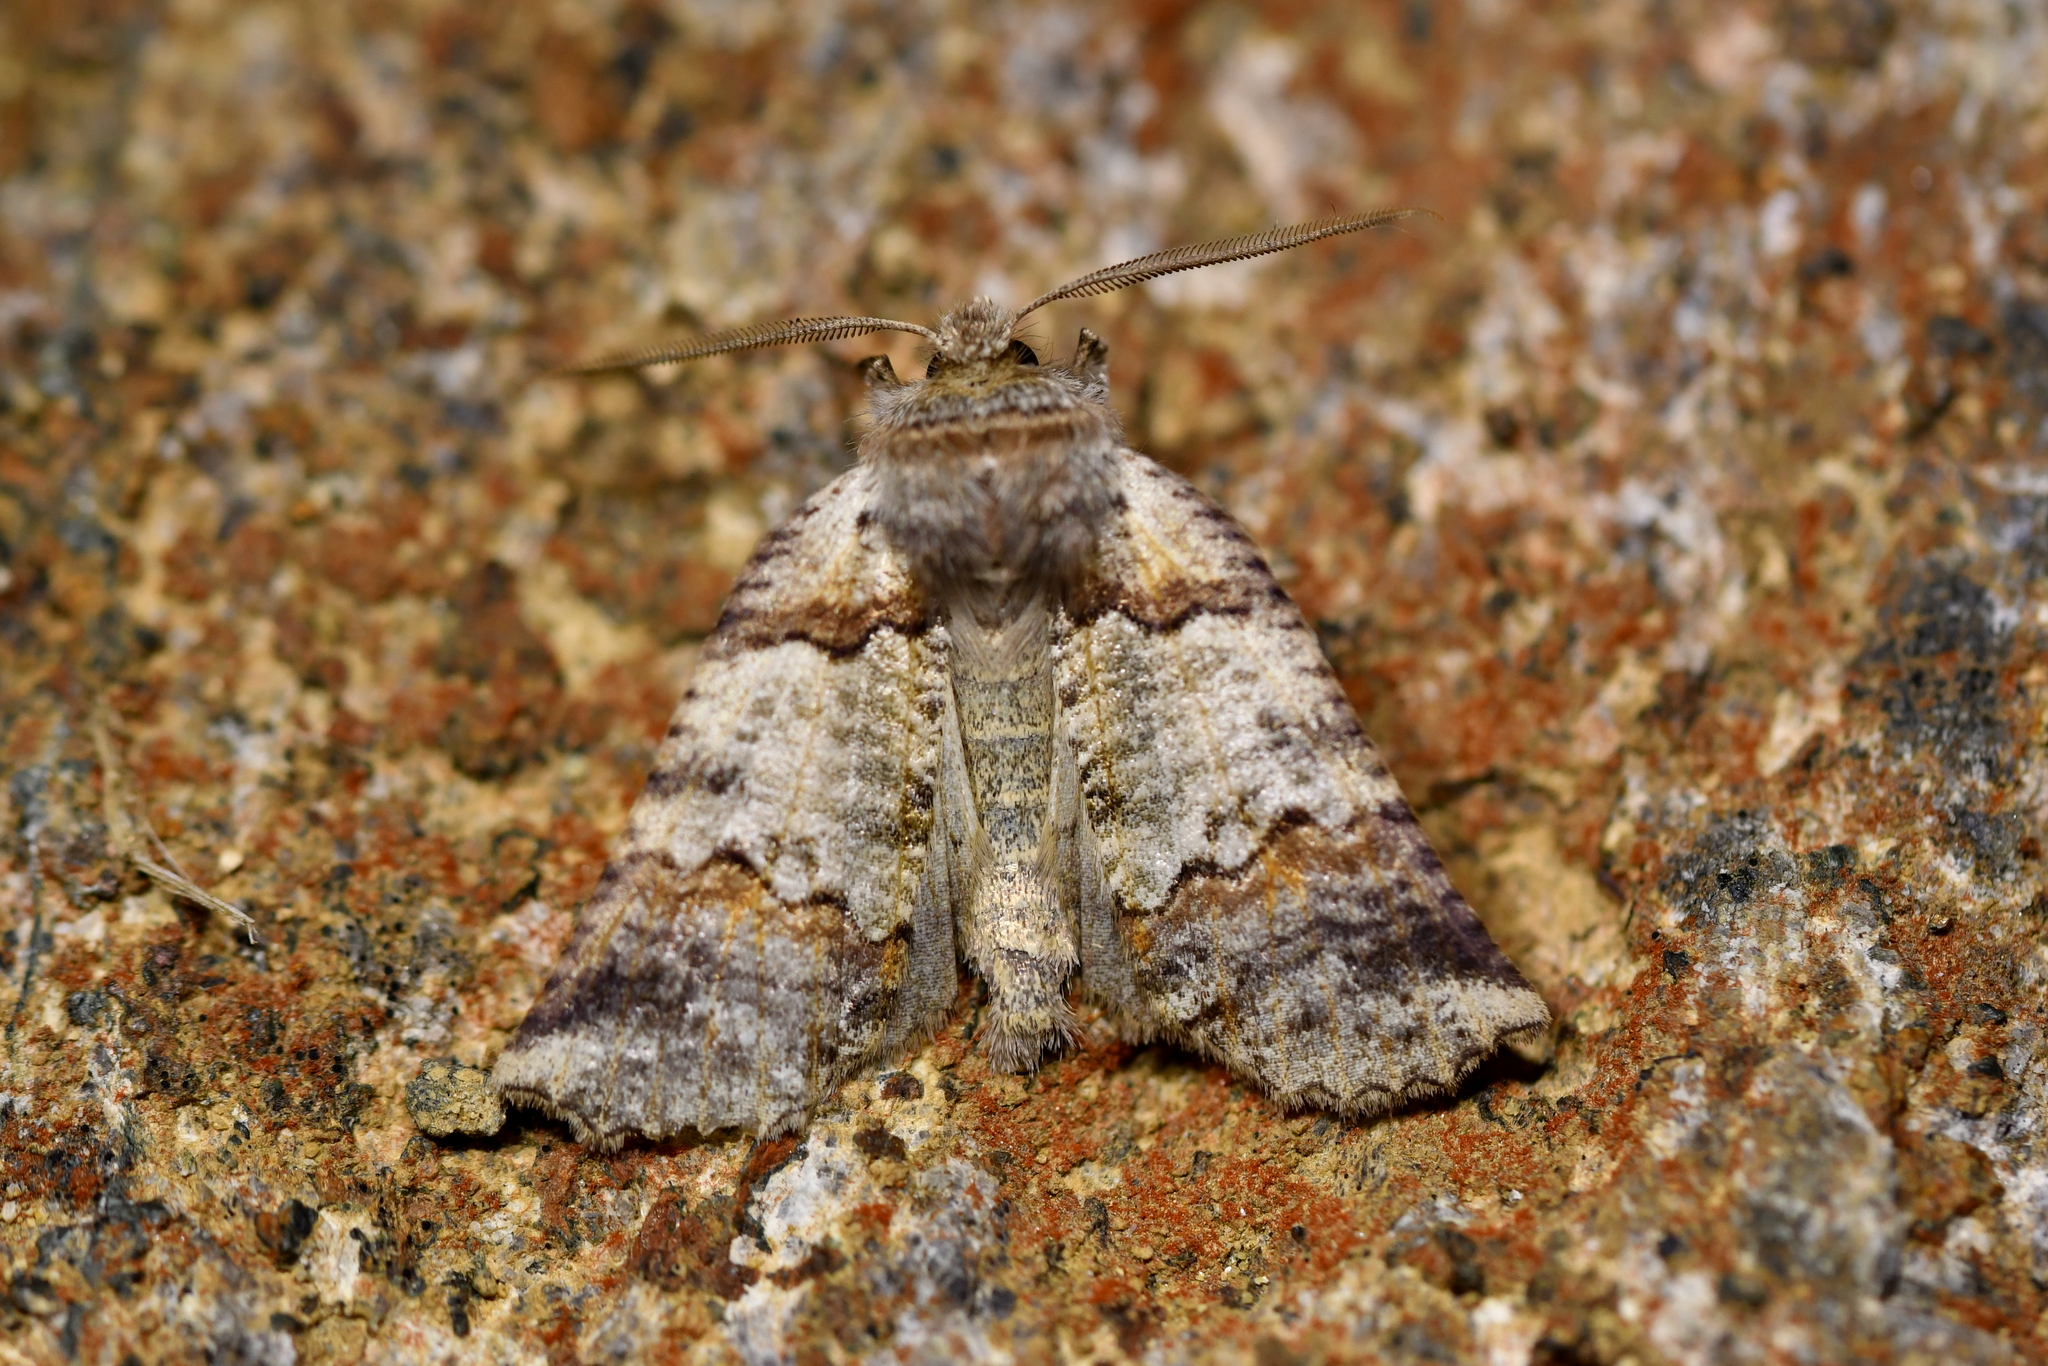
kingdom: Animalia
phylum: Arthropoda
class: Insecta
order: Lepidoptera
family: Geometridae
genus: Declana
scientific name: Declana
